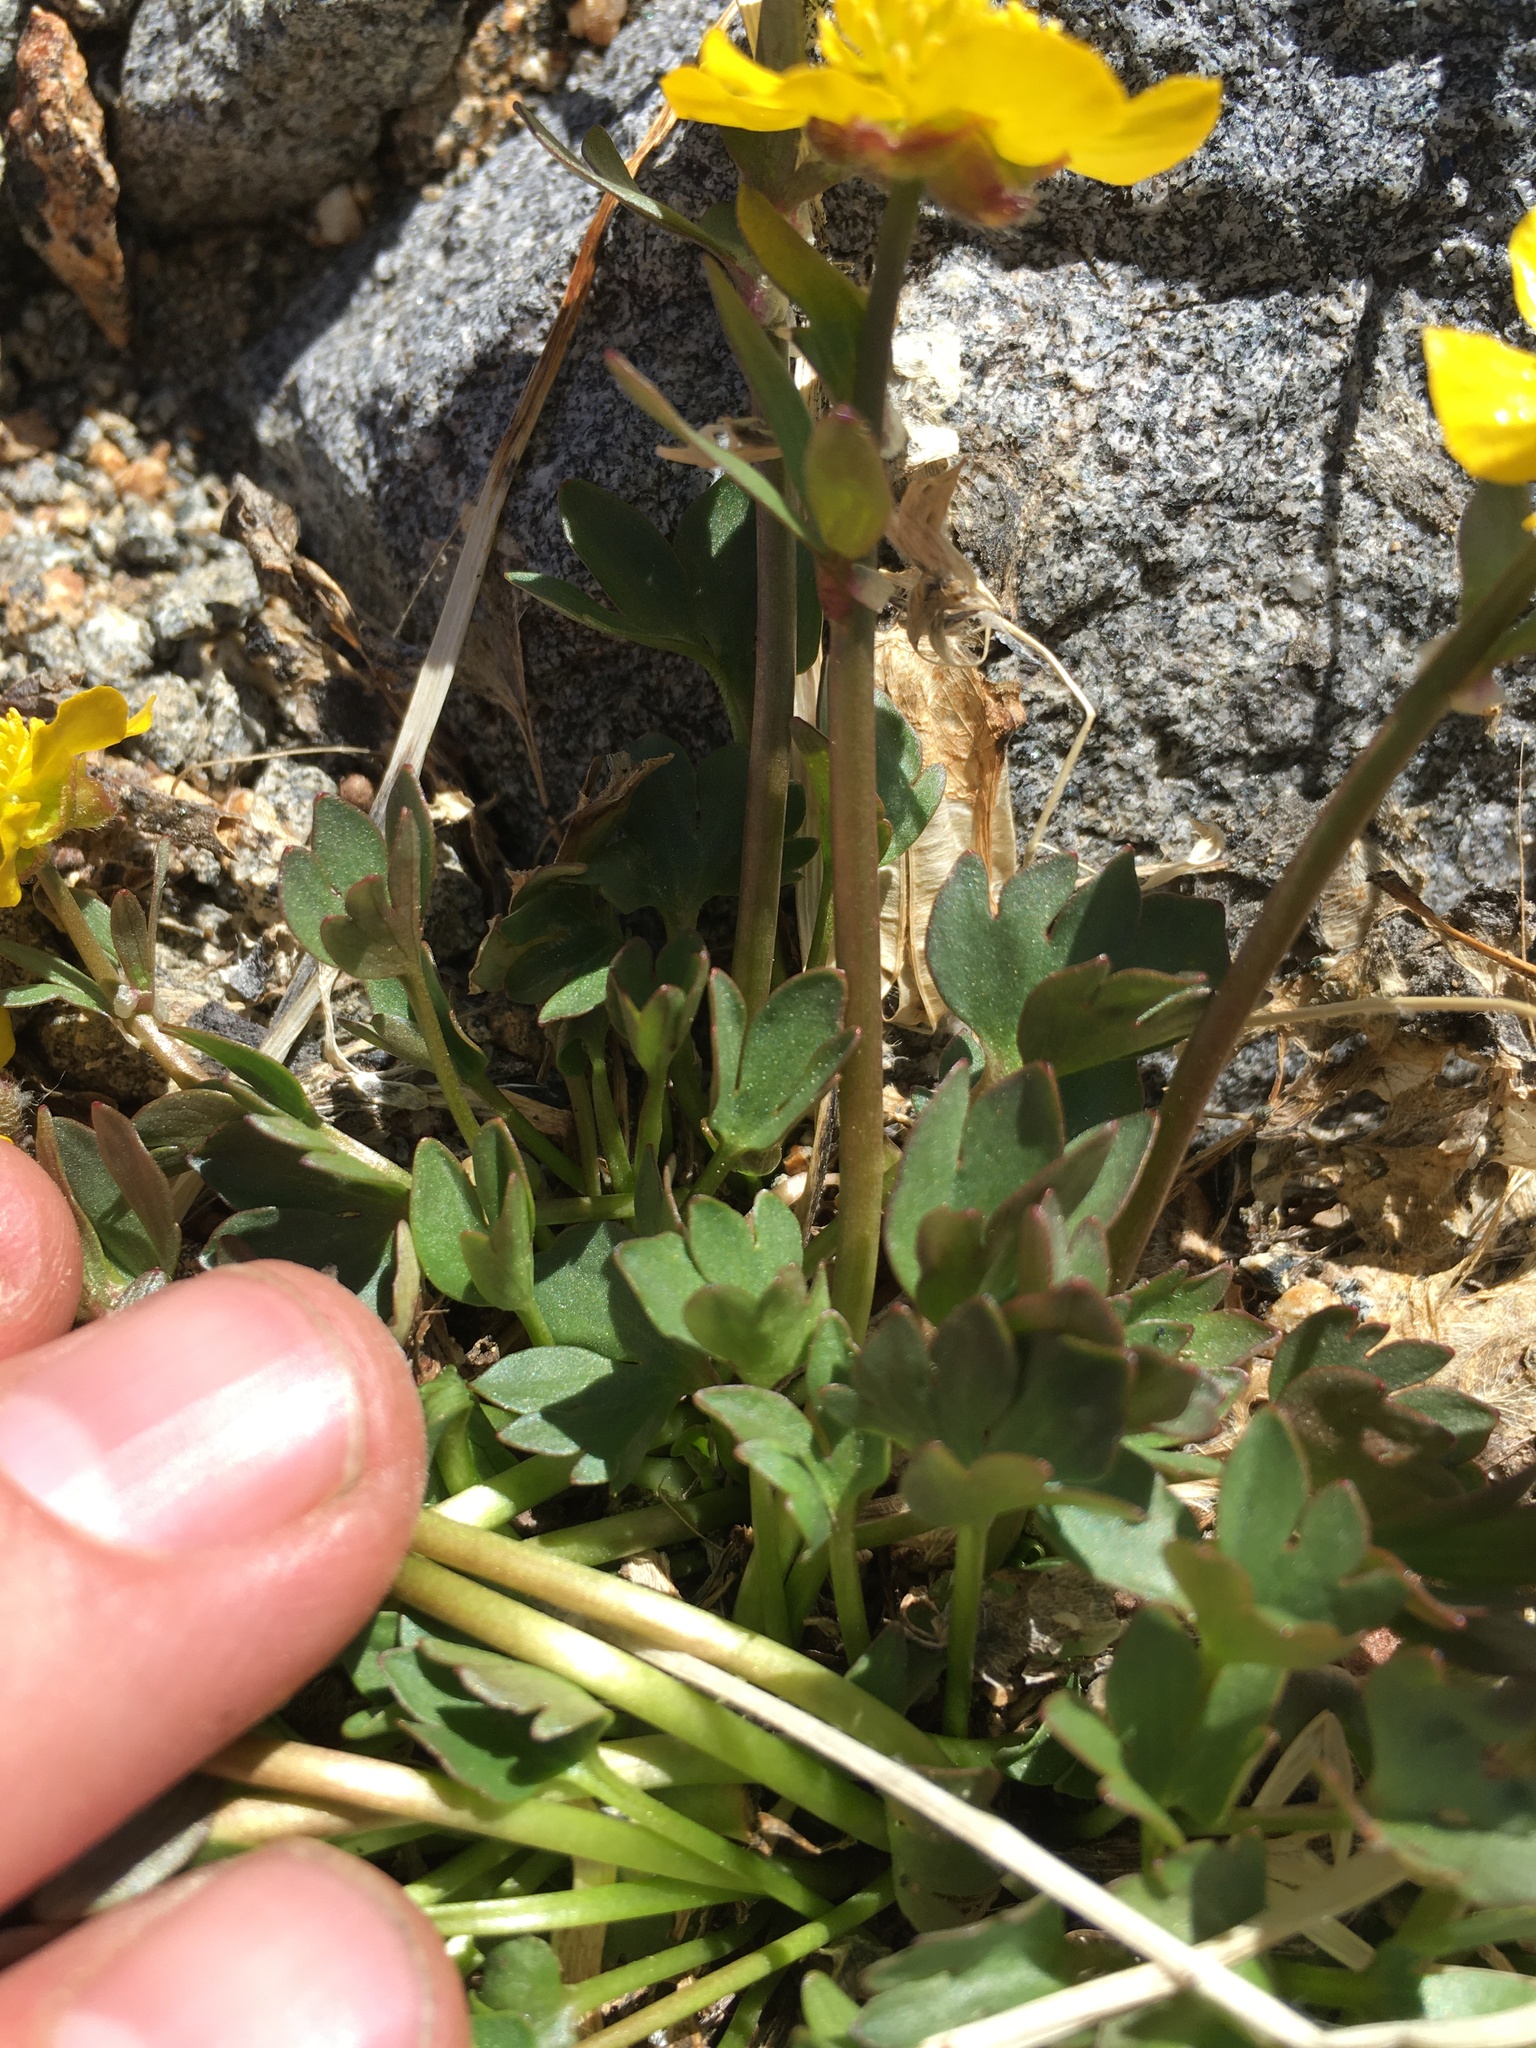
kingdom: Plantae
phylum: Tracheophyta
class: Magnoliopsida
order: Ranunculales
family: Ranunculaceae
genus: Ranunculus
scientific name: Ranunculus eschscholtzii
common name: Eschscholtz's buttercup
